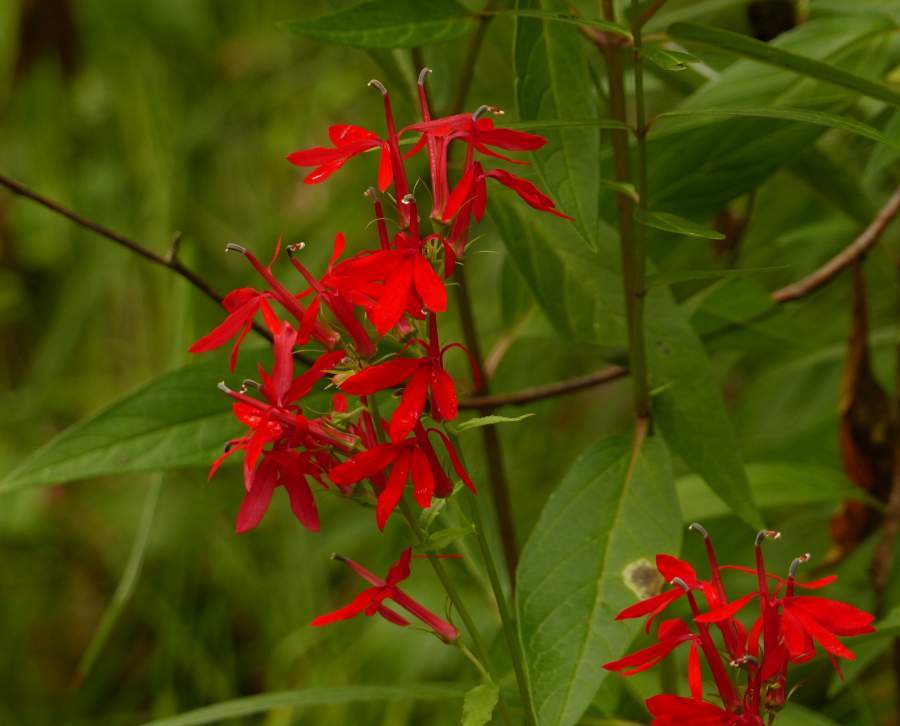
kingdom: Plantae
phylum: Tracheophyta
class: Magnoliopsida
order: Asterales
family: Campanulaceae
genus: Lobelia
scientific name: Lobelia cardinalis
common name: Cardinal flower
